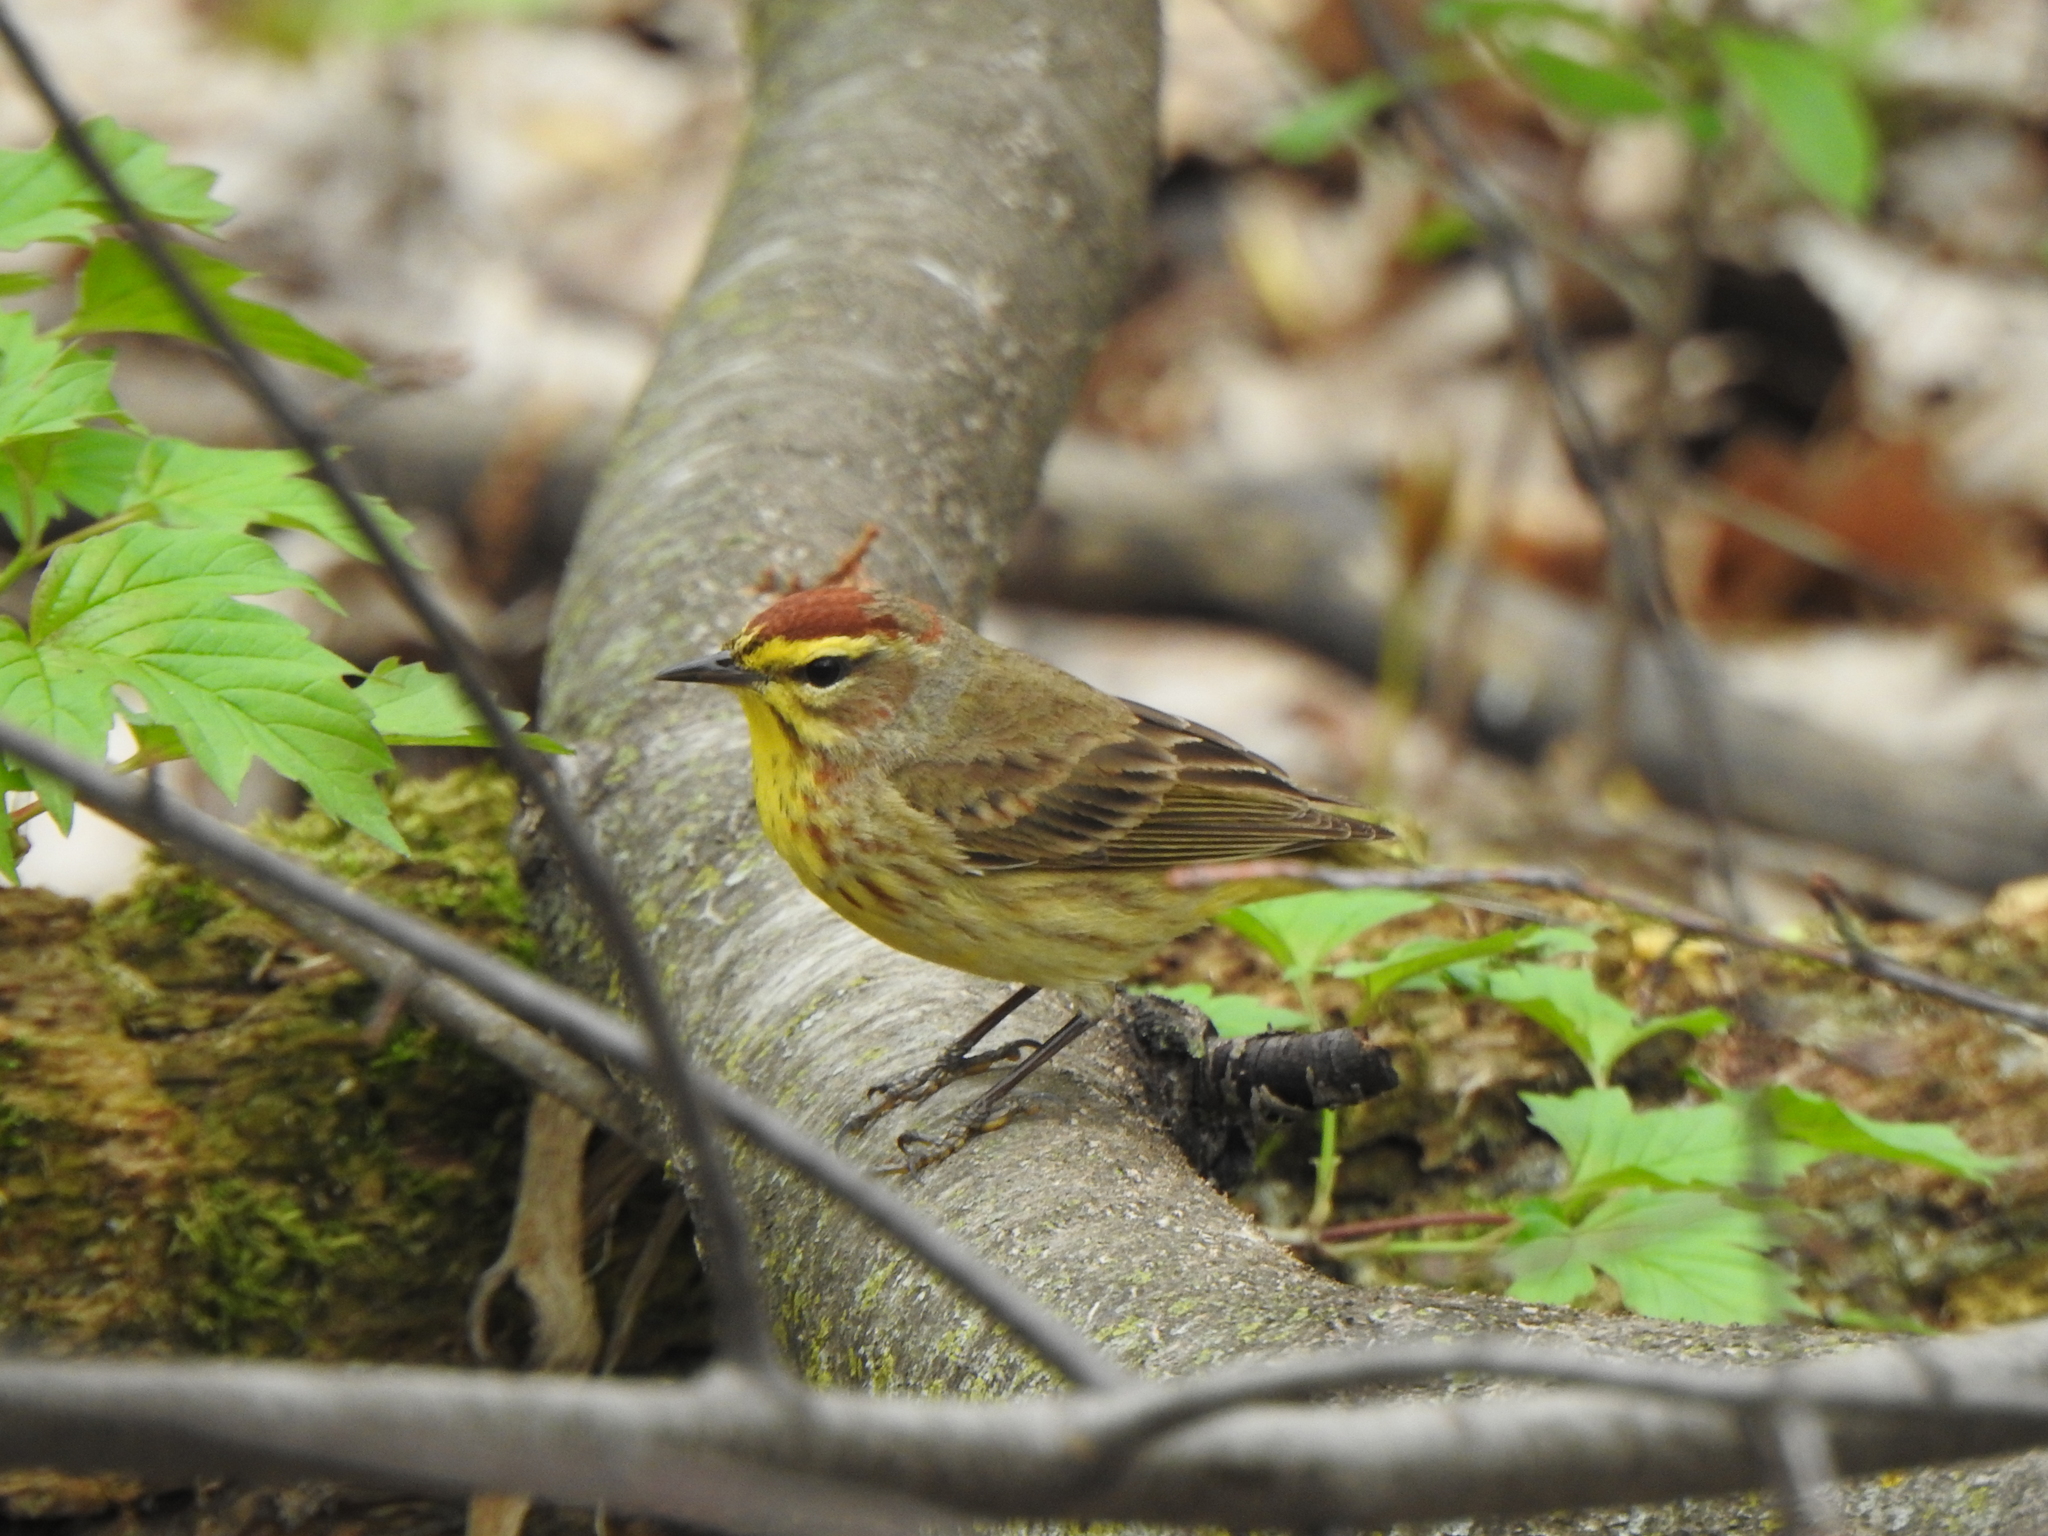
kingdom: Animalia
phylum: Chordata
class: Aves
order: Passeriformes
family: Parulidae
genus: Setophaga
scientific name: Setophaga palmarum
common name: Palm warbler
